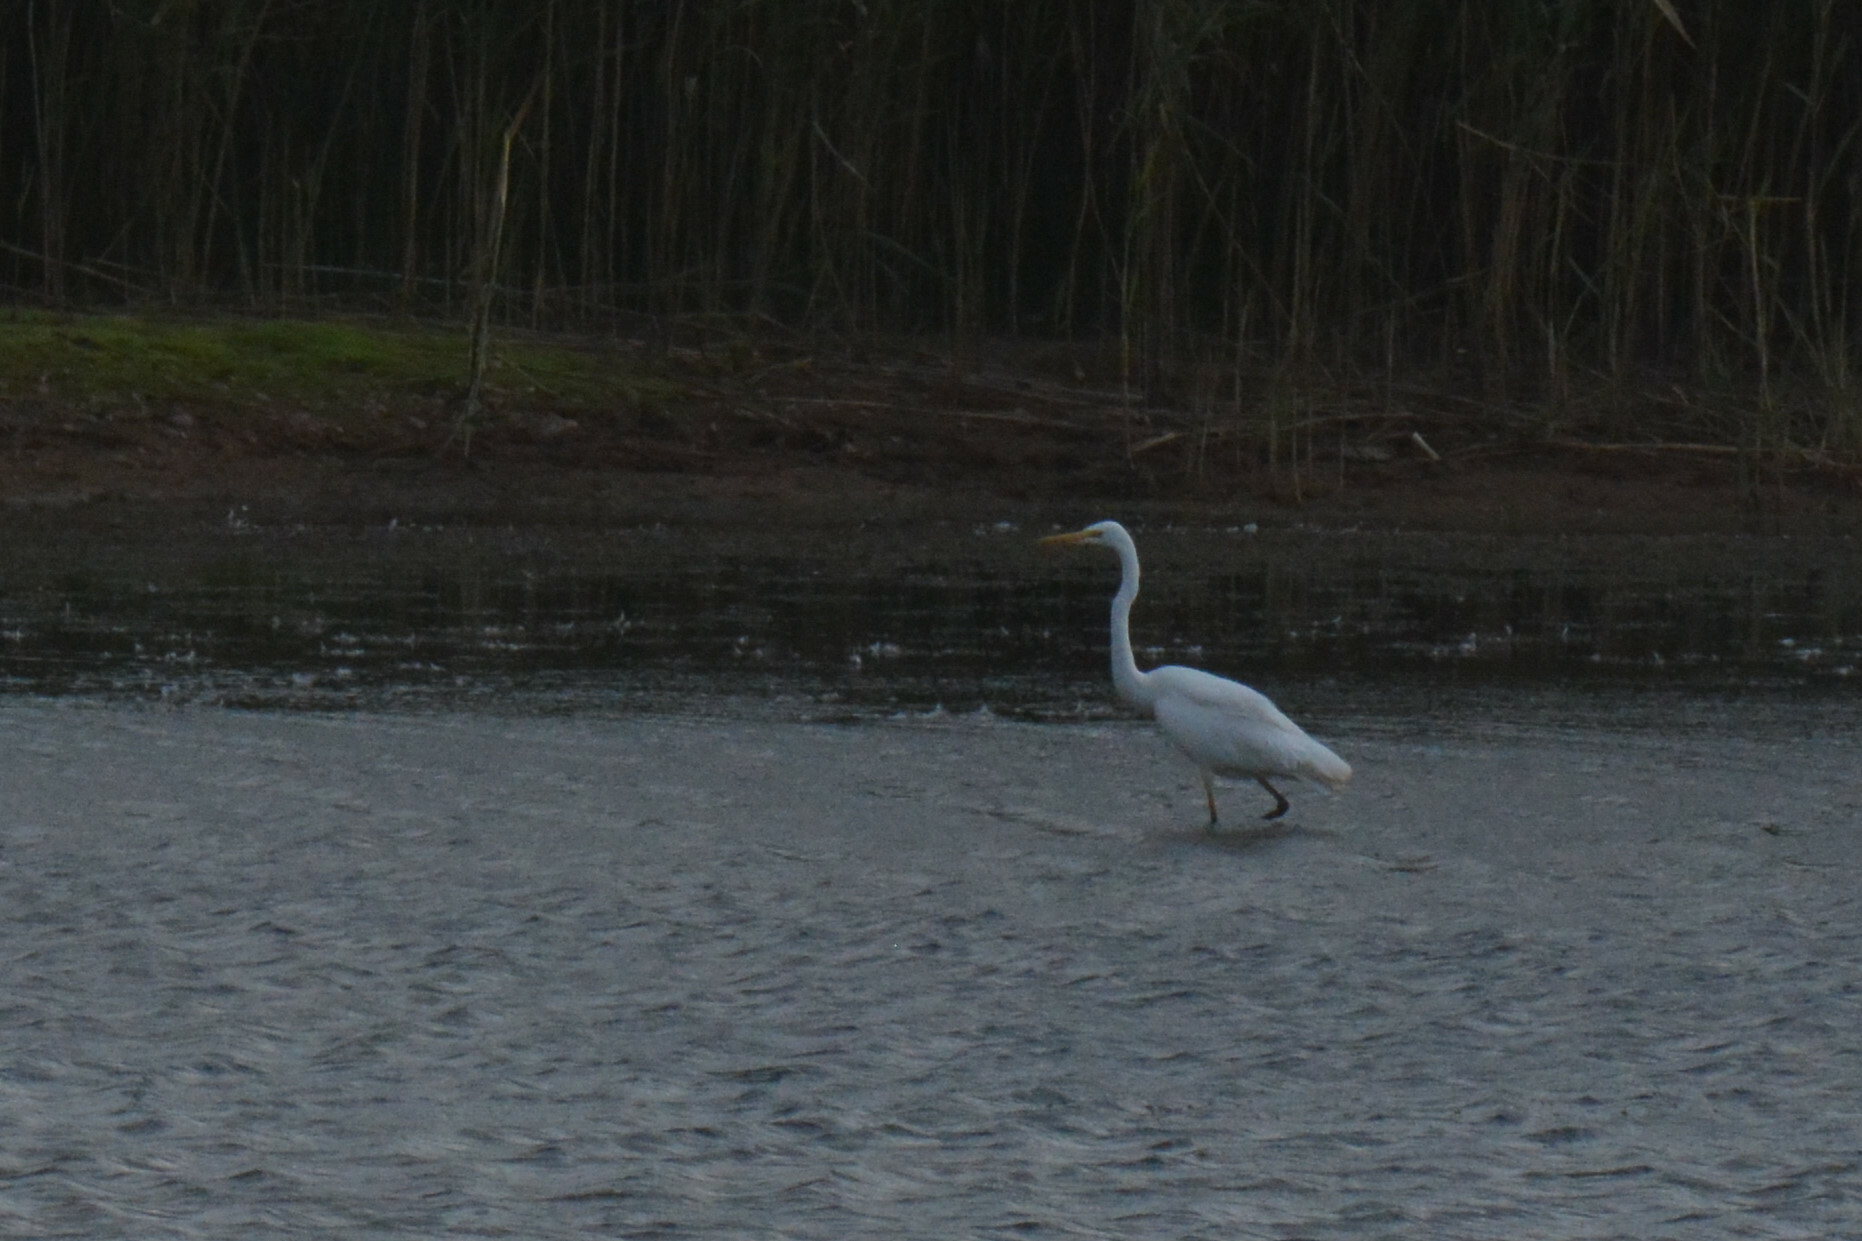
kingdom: Animalia
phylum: Chordata
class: Aves
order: Pelecaniformes
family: Ardeidae
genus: Ardea
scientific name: Ardea alba
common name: Great egret
